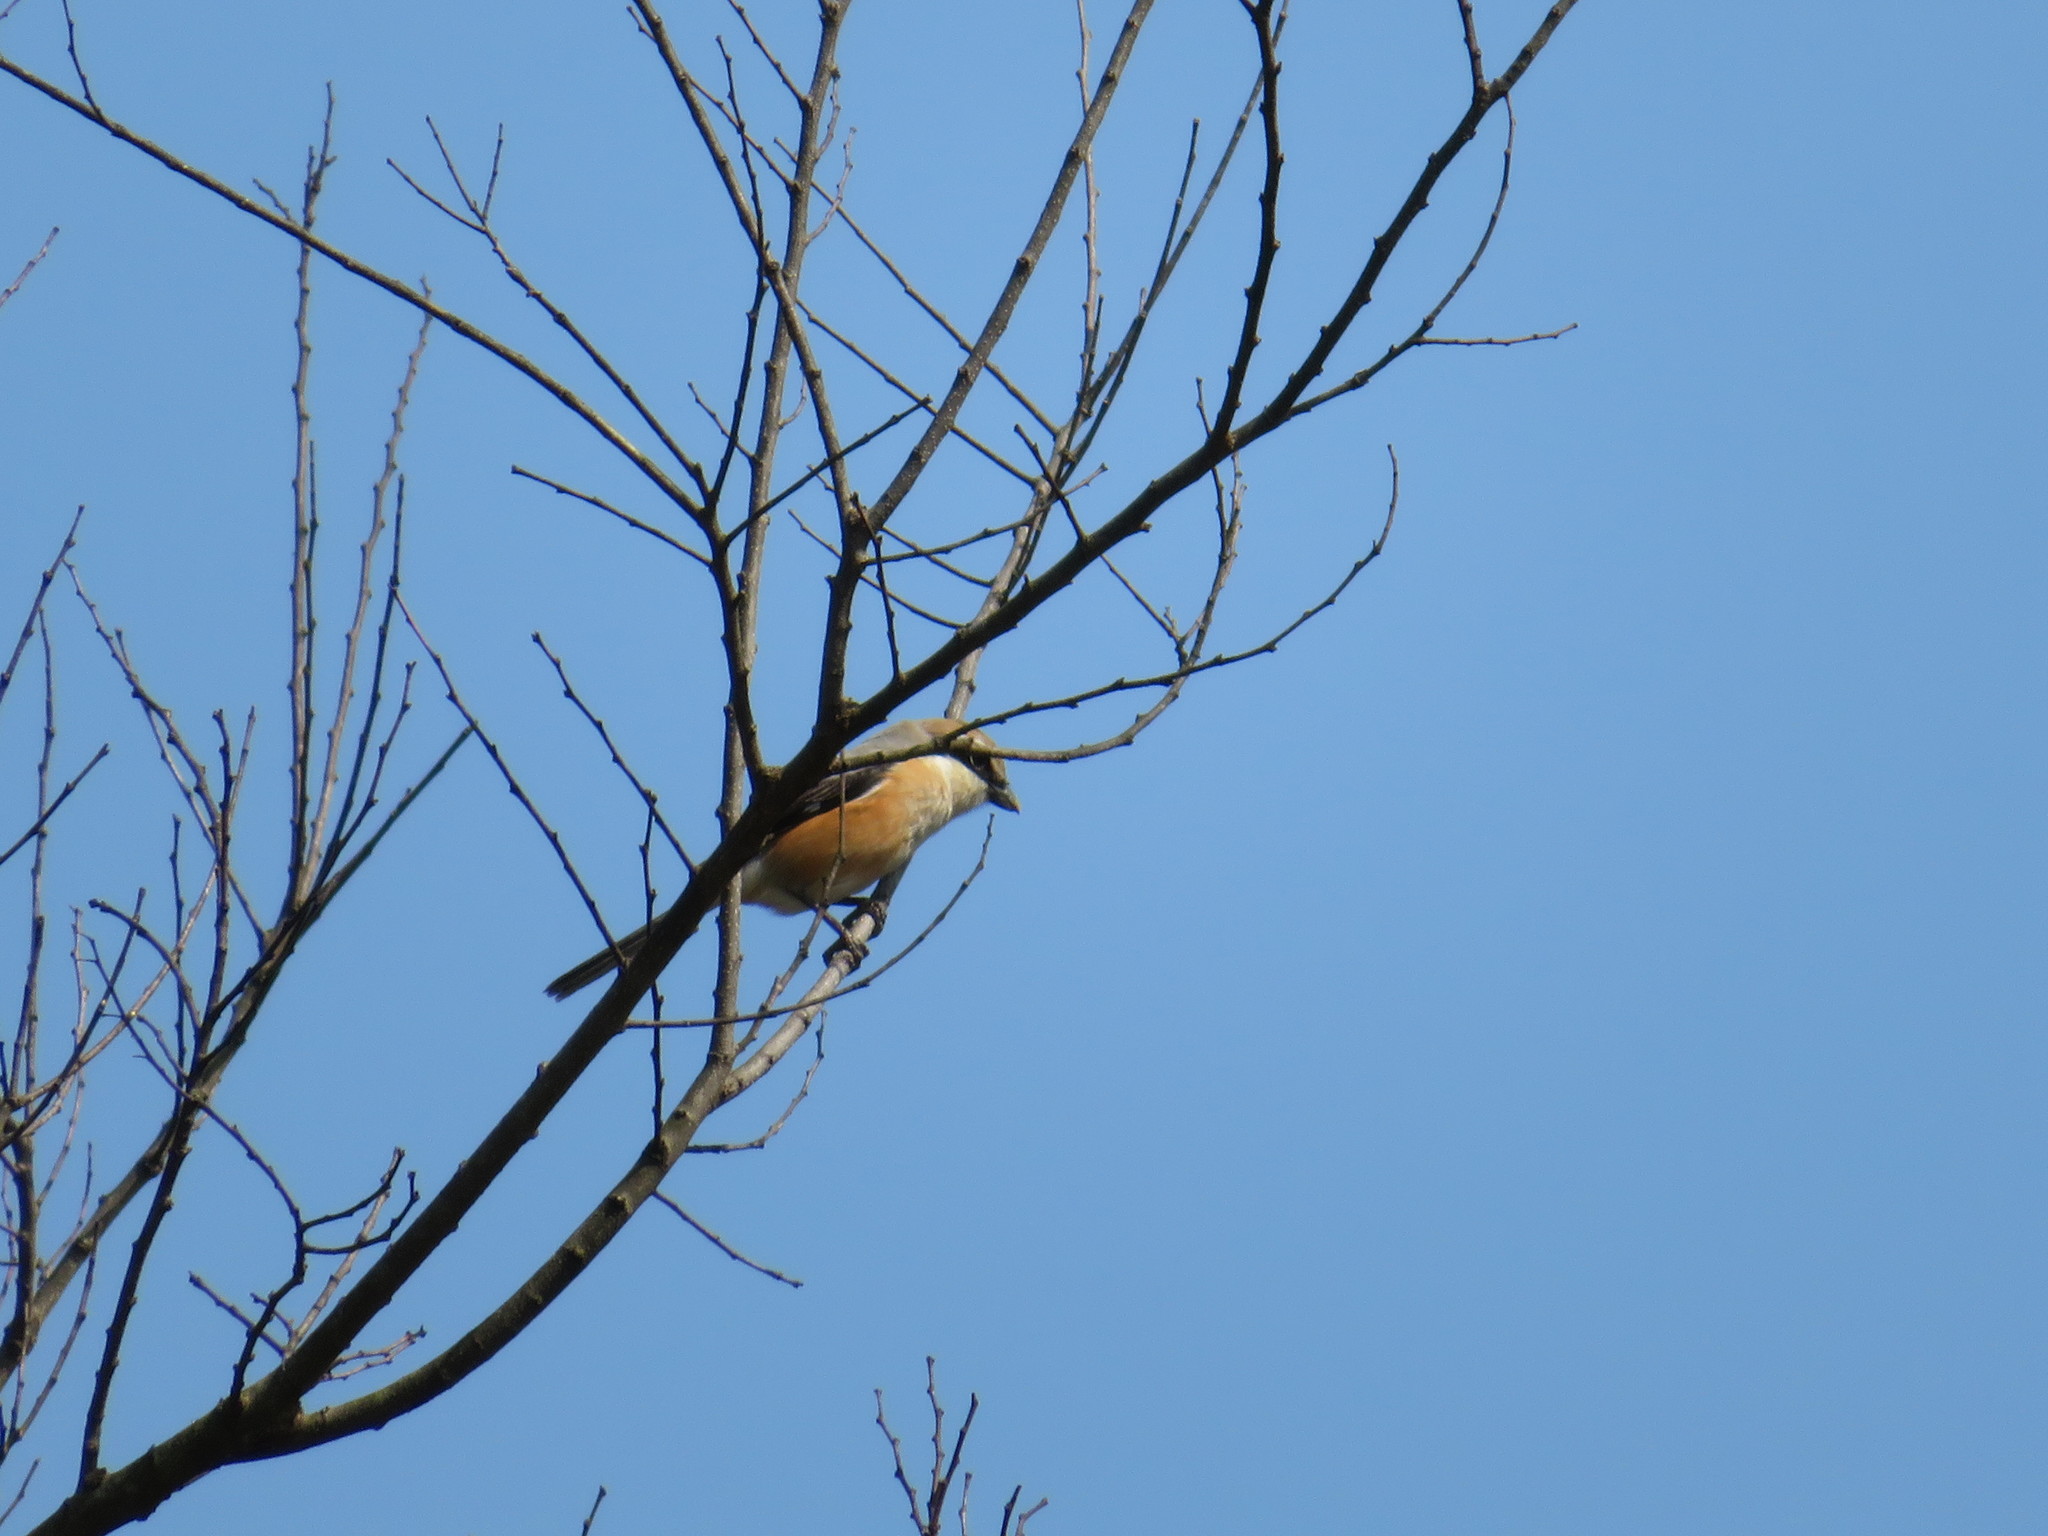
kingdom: Animalia
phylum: Chordata
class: Aves
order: Passeriformes
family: Laniidae
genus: Lanius
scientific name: Lanius bucephalus
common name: Bull-headed shrike
